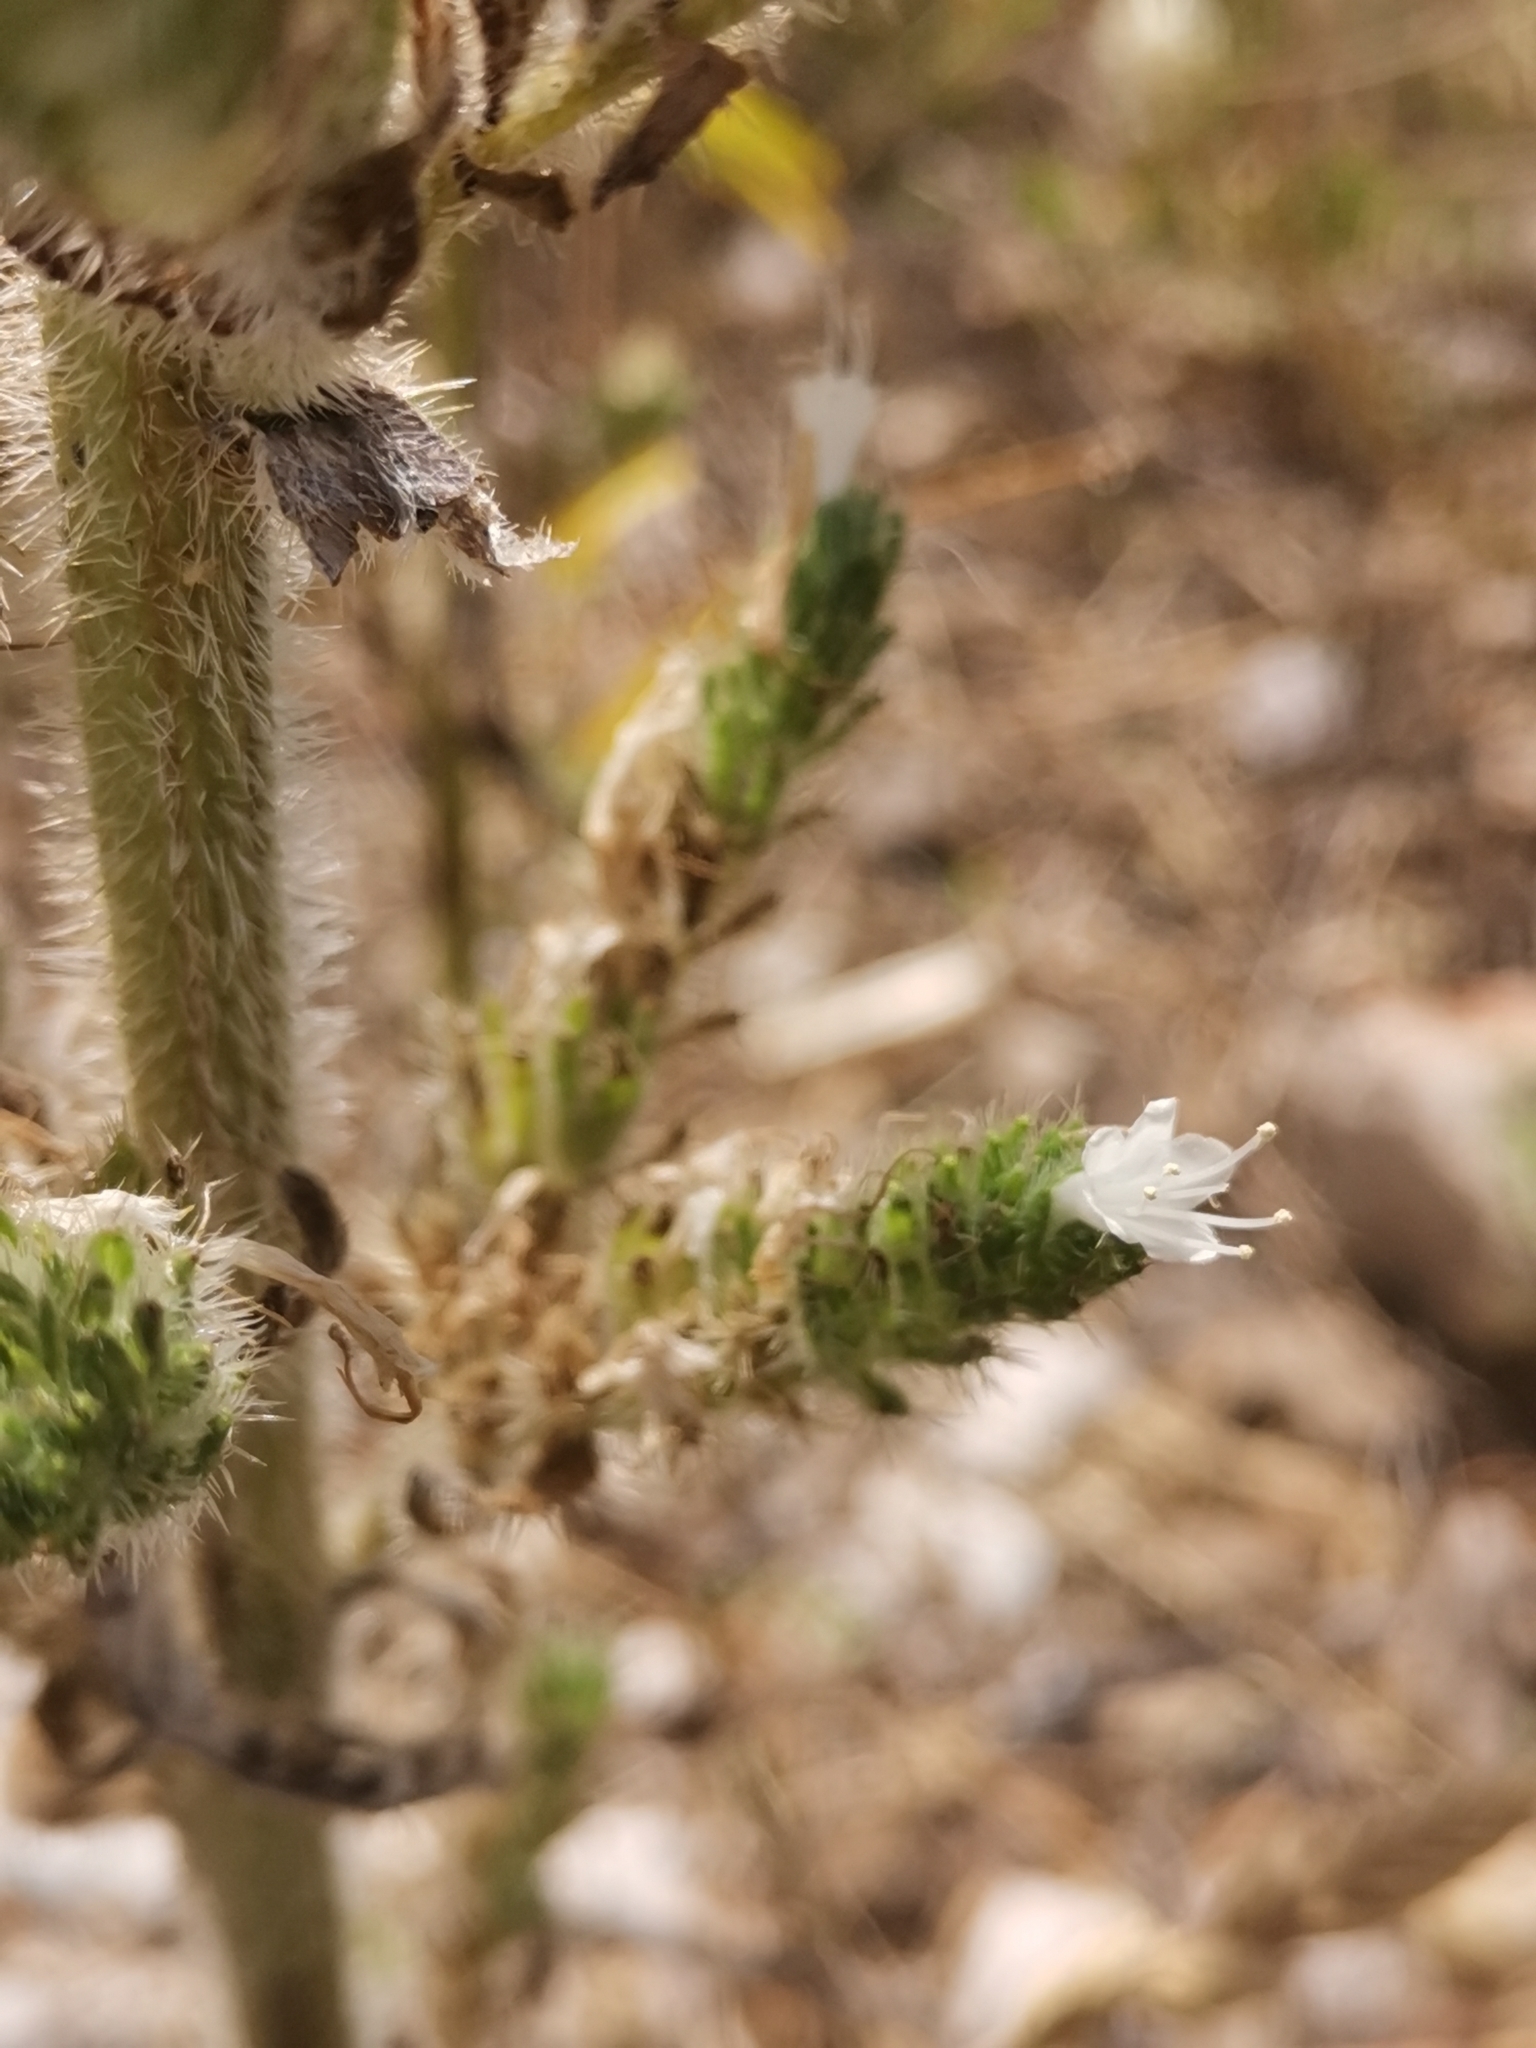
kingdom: Plantae
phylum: Tracheophyta
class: Magnoliopsida
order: Boraginales
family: Boraginaceae
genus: Echium
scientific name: Echium italicum
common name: Italian viper's bugloss
